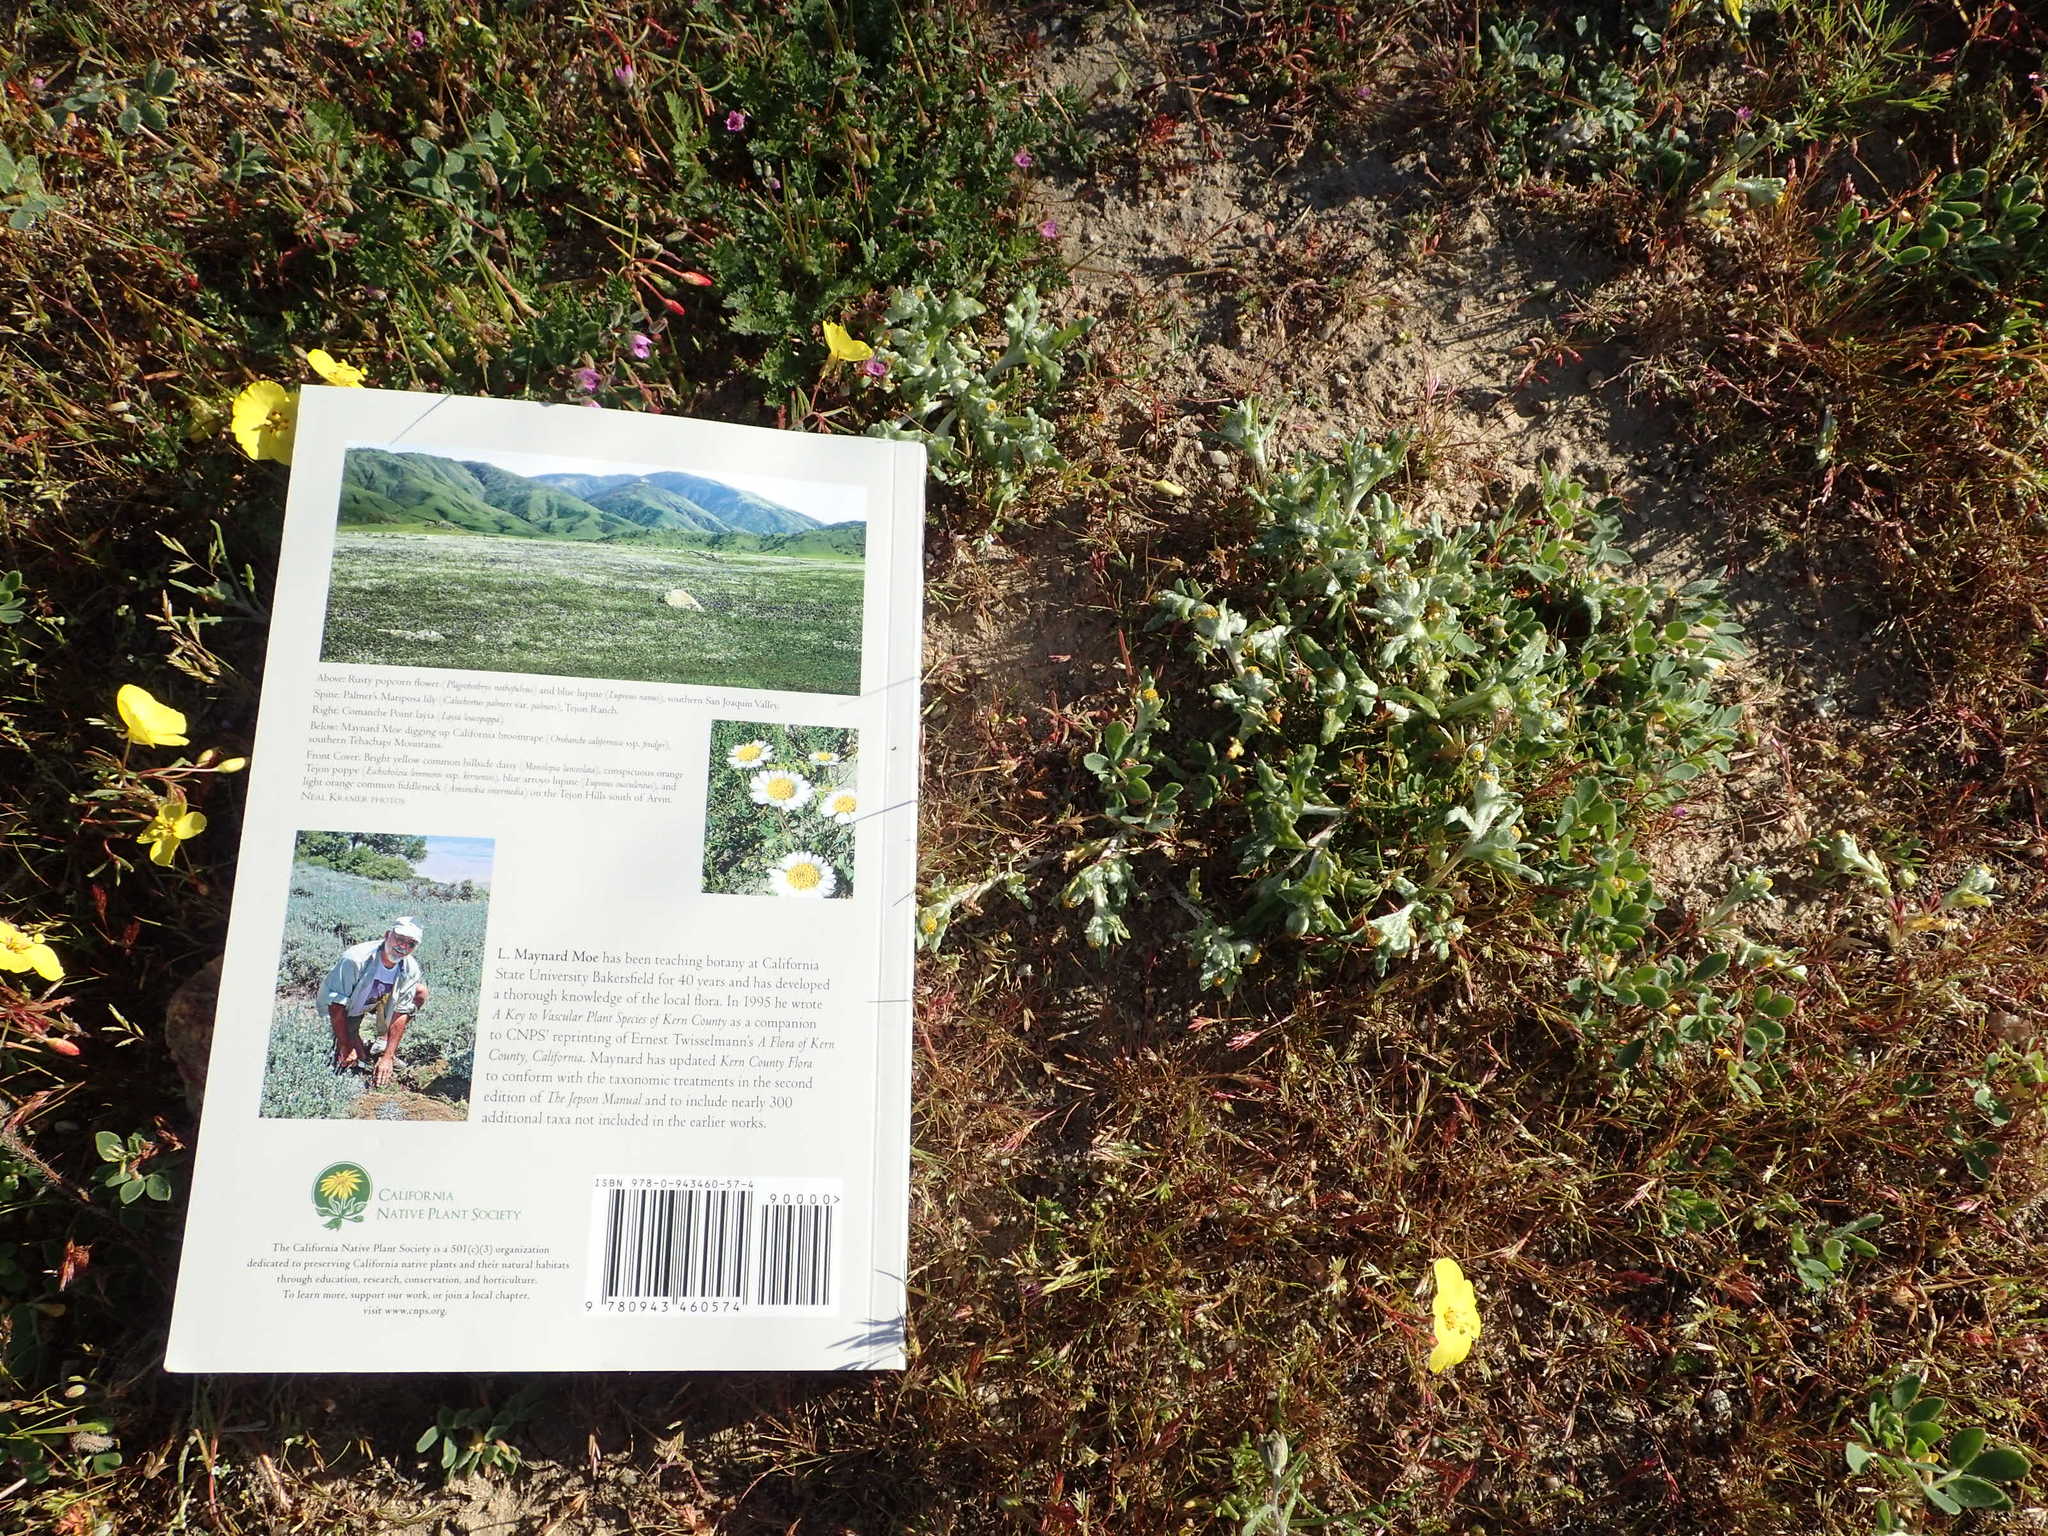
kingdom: Plantae
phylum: Tracheophyta
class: Magnoliopsida
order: Asterales
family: Asteraceae
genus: Monolopia
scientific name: Monolopia congdonii
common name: San joaquin woolly-threads
